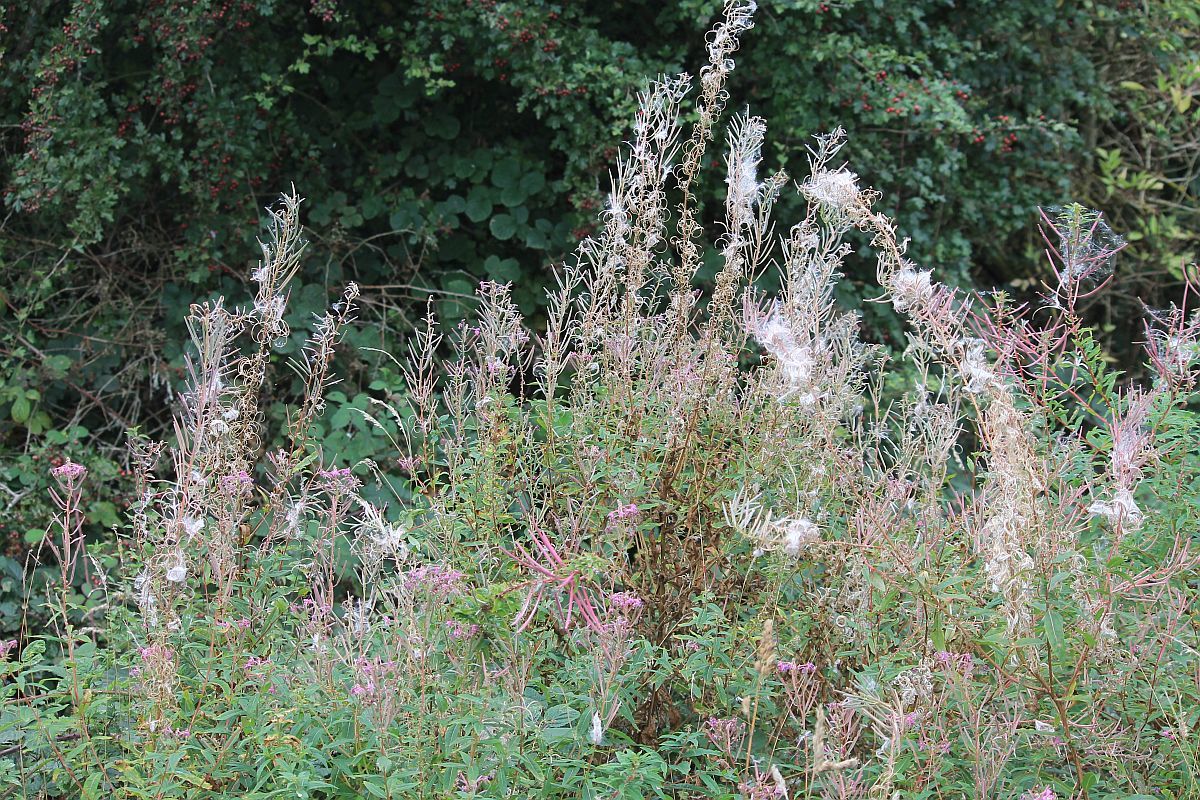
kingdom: Plantae
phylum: Tracheophyta
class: Magnoliopsida
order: Myrtales
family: Onagraceae
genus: Chamaenerion
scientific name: Chamaenerion angustifolium
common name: Fireweed
